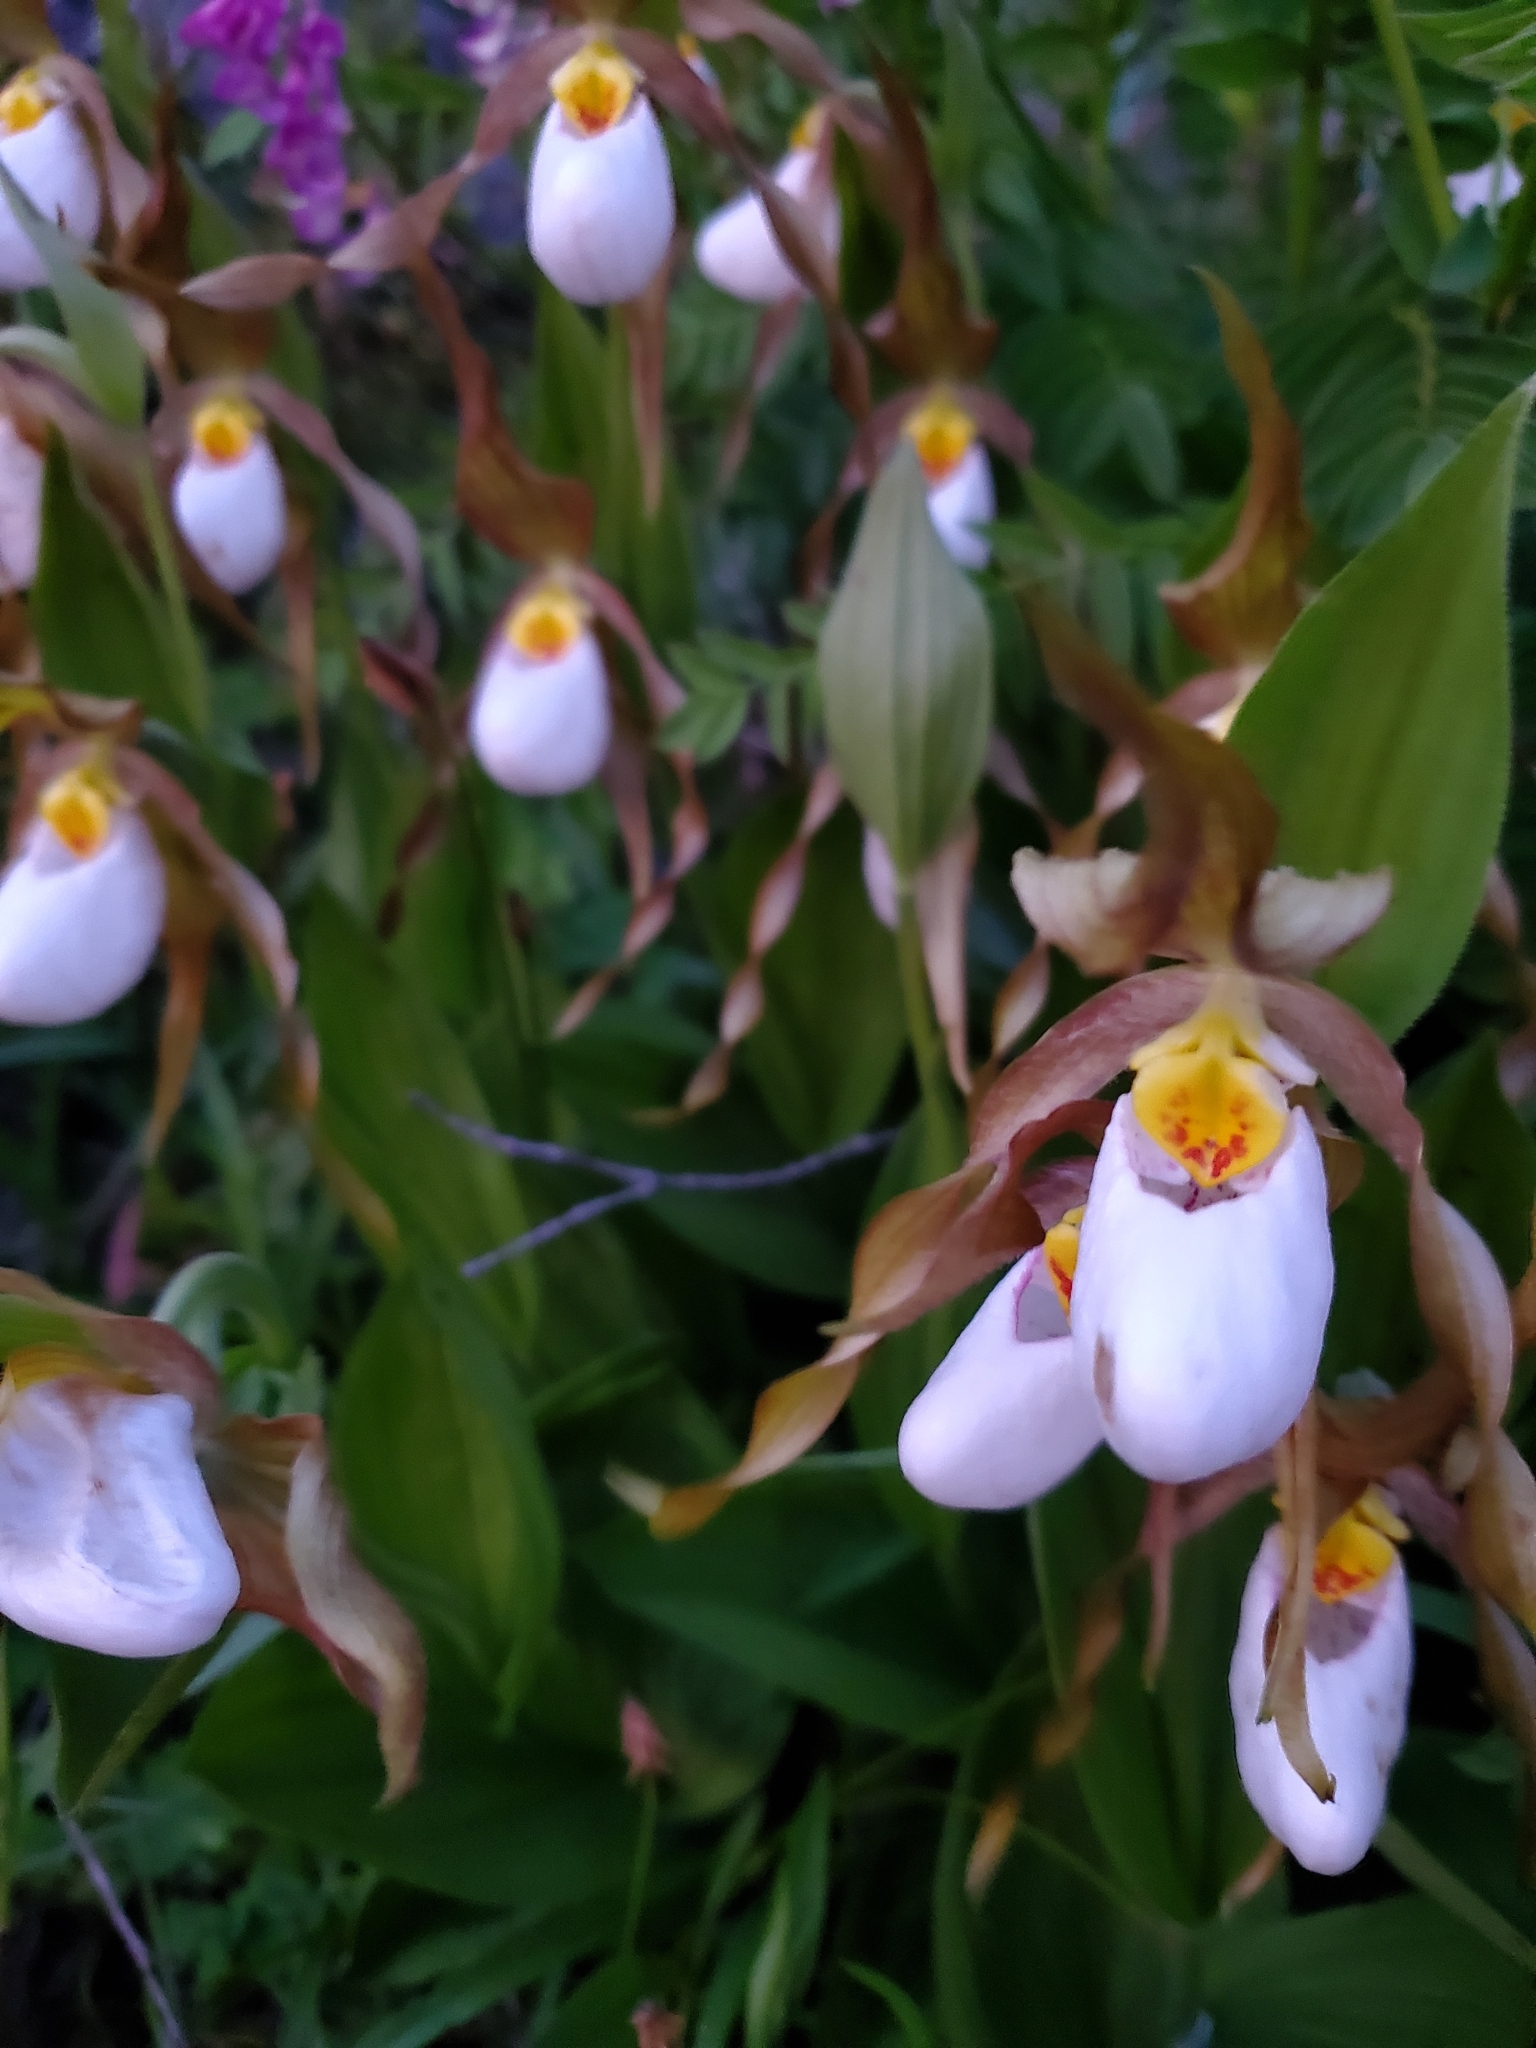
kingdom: Plantae
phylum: Tracheophyta
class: Liliopsida
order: Asparagales
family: Orchidaceae
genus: Cypripedium
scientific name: Cypripedium montanum
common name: Mountain lady's-slipper
